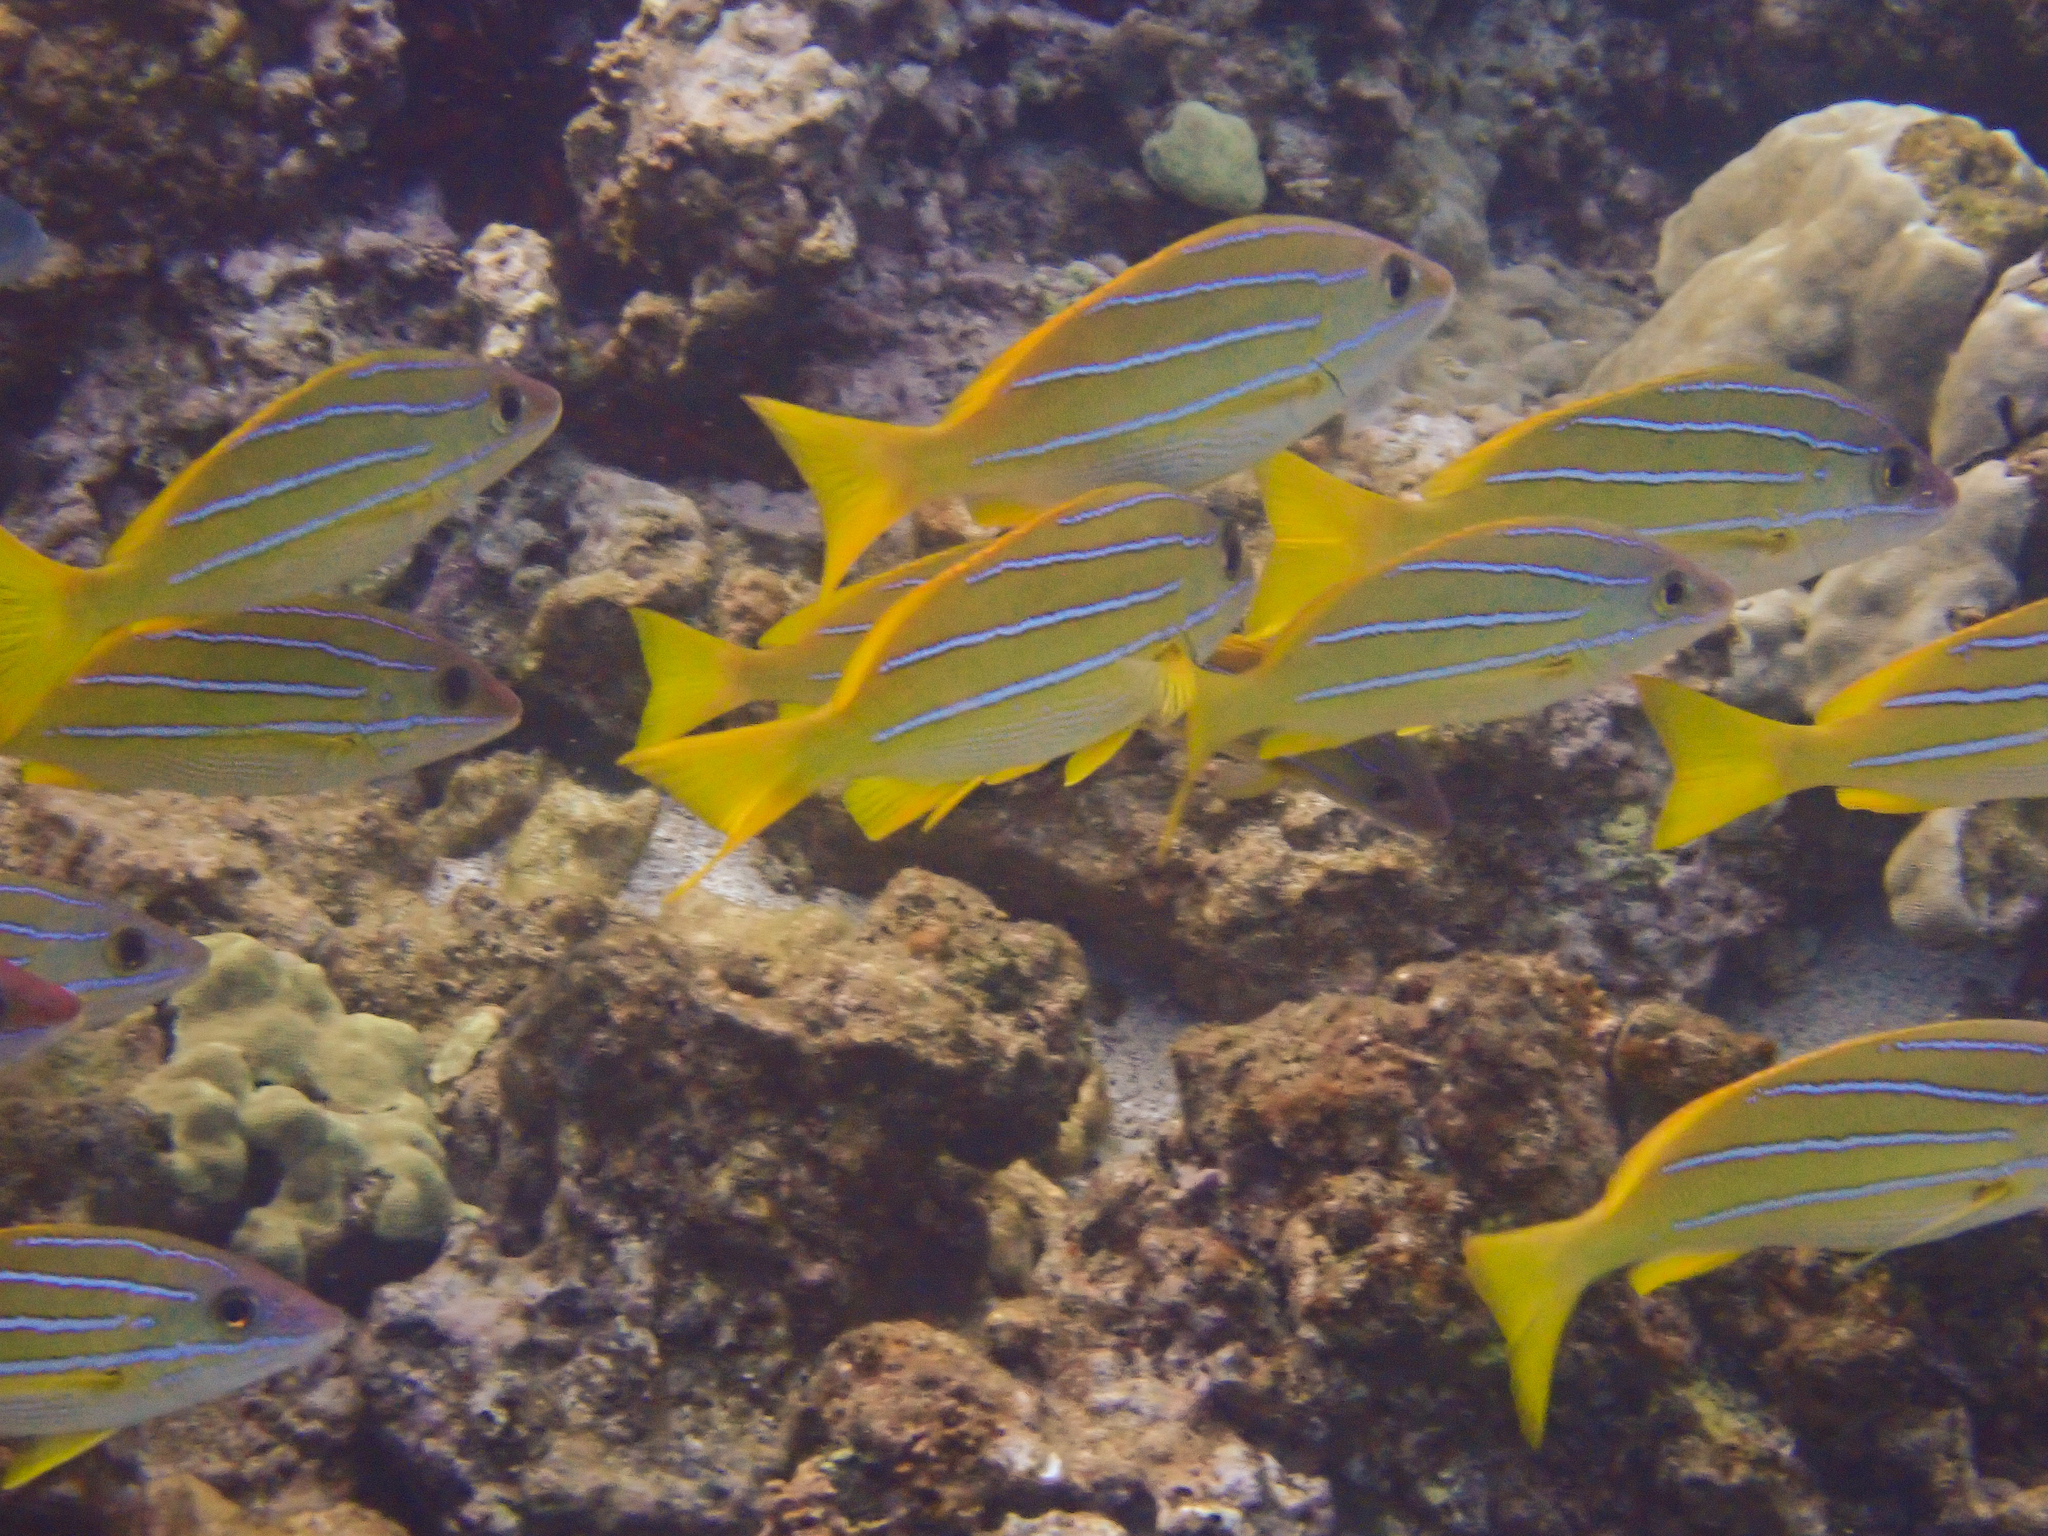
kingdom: Animalia
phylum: Chordata
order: Perciformes
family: Lutjanidae
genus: Lutjanus
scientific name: Lutjanus kasmira
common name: Common bluestripe snapper
